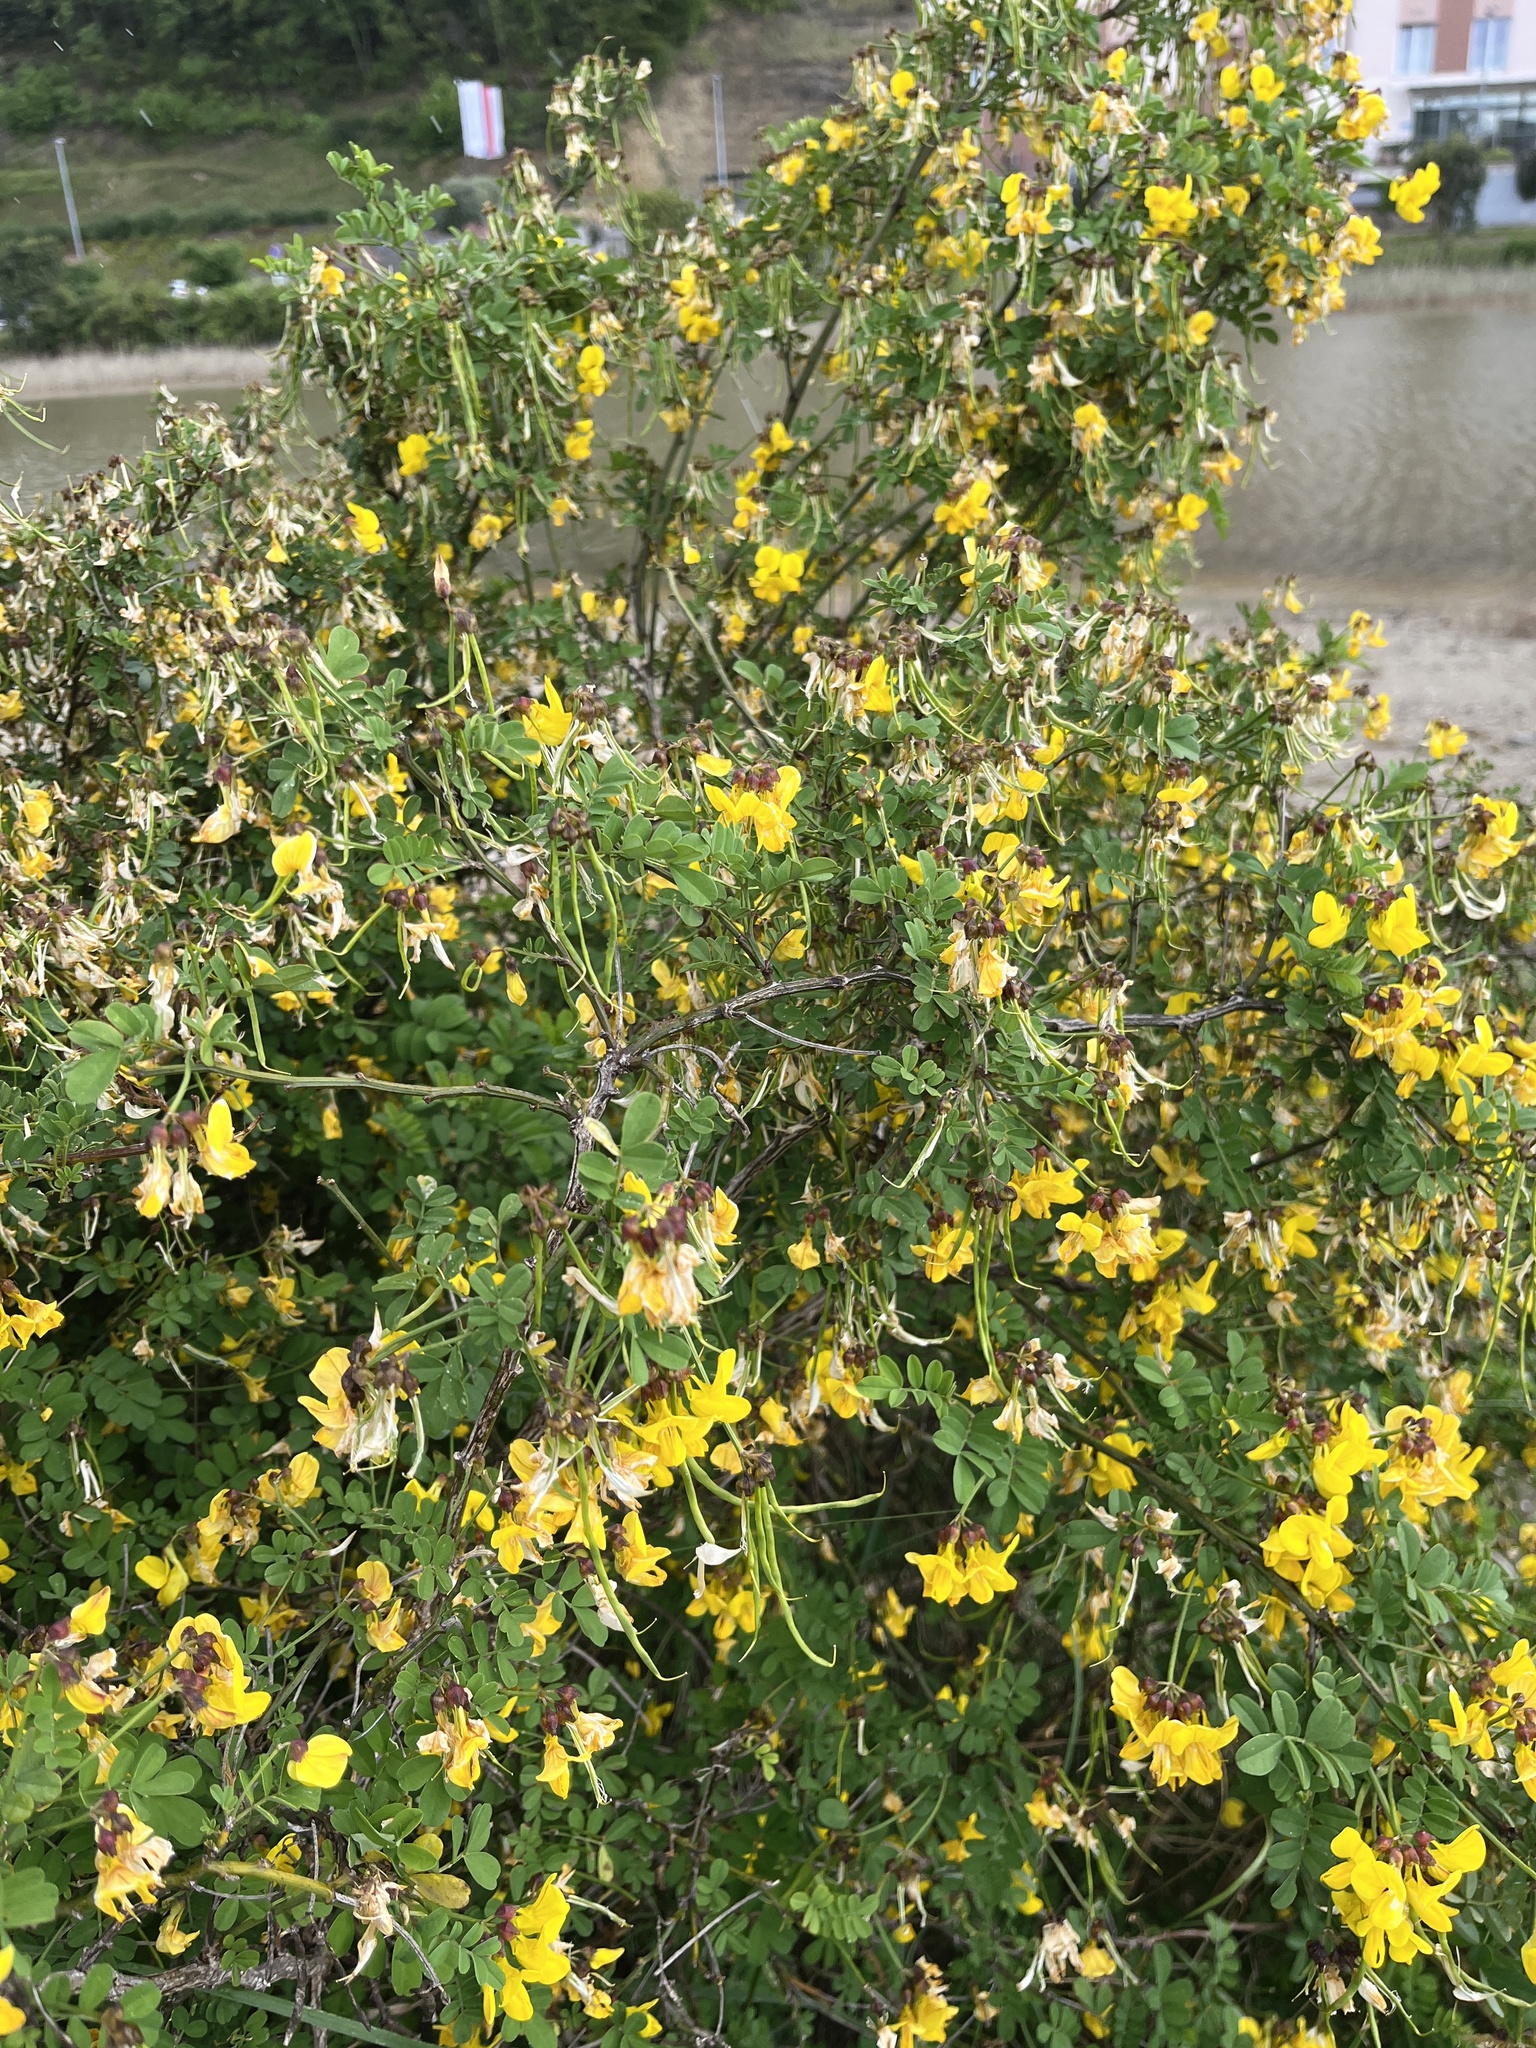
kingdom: Plantae
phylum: Tracheophyta
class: Magnoliopsida
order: Fabales
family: Fabaceae
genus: Hippocrepis
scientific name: Hippocrepis emerus
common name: Scorpion senna
